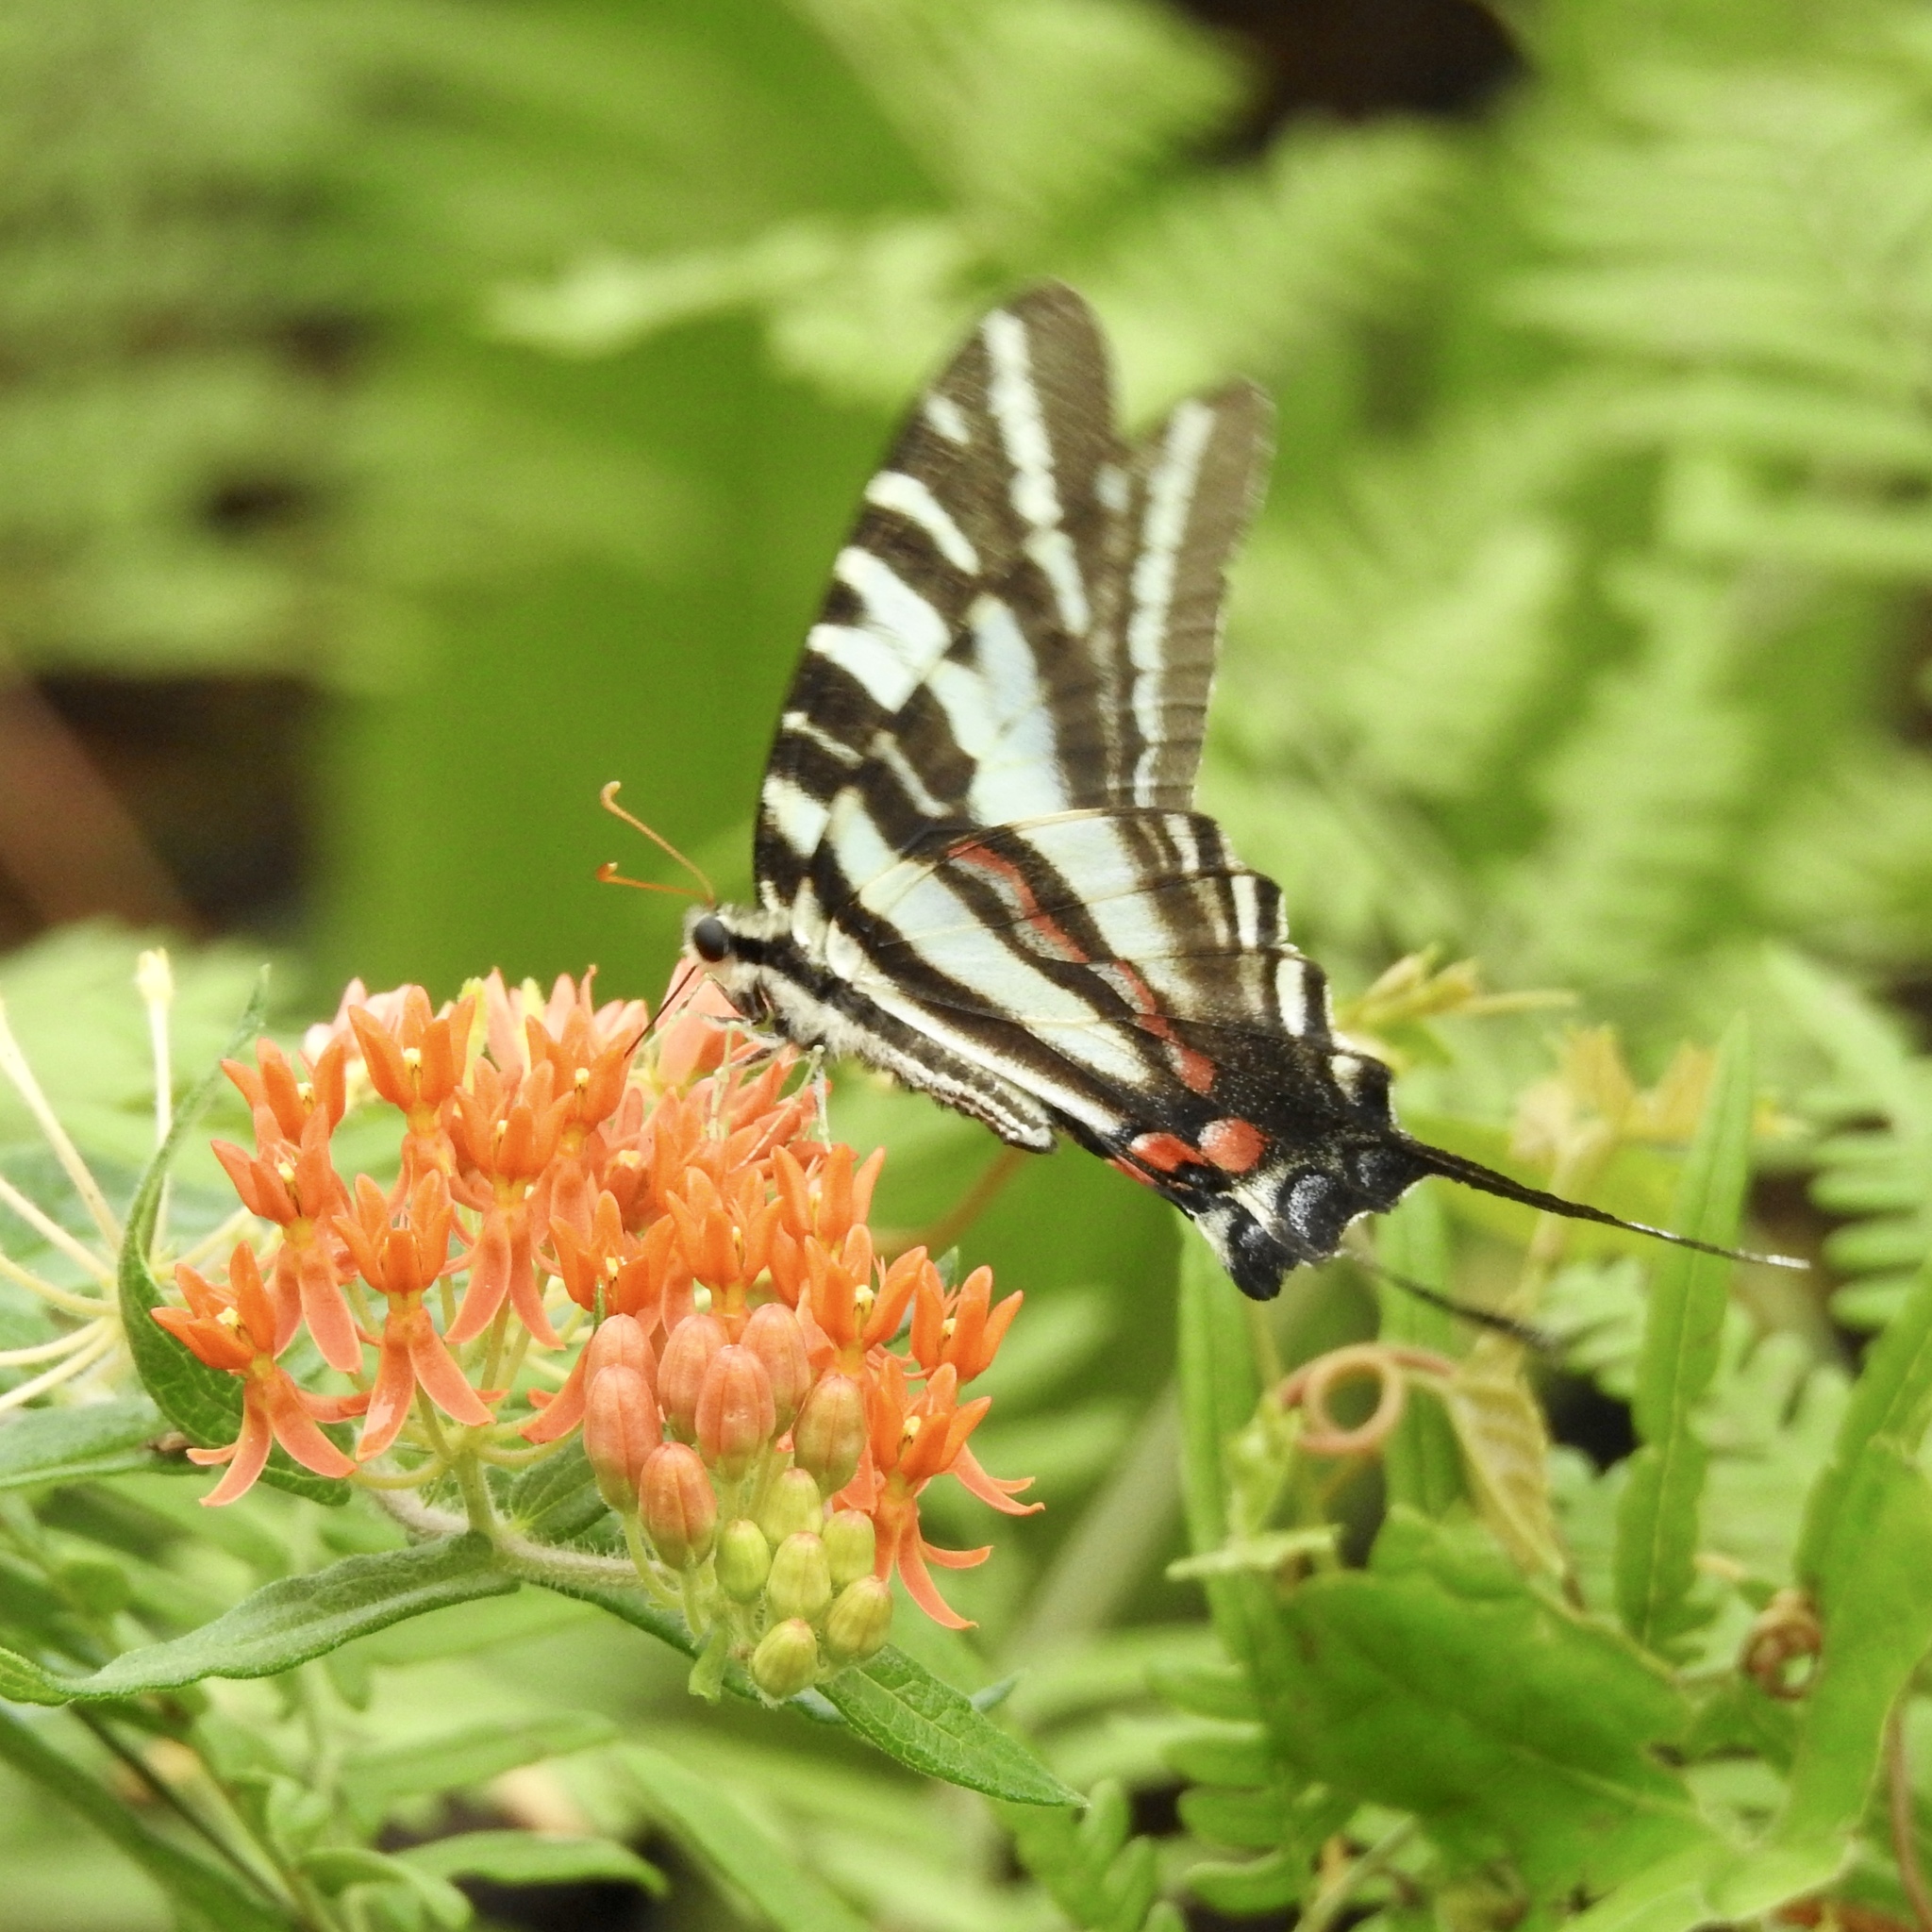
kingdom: Animalia
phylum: Arthropoda
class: Insecta
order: Lepidoptera
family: Papilionidae
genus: Protographium
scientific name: Protographium marcellus
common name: Zebra swallowtail
